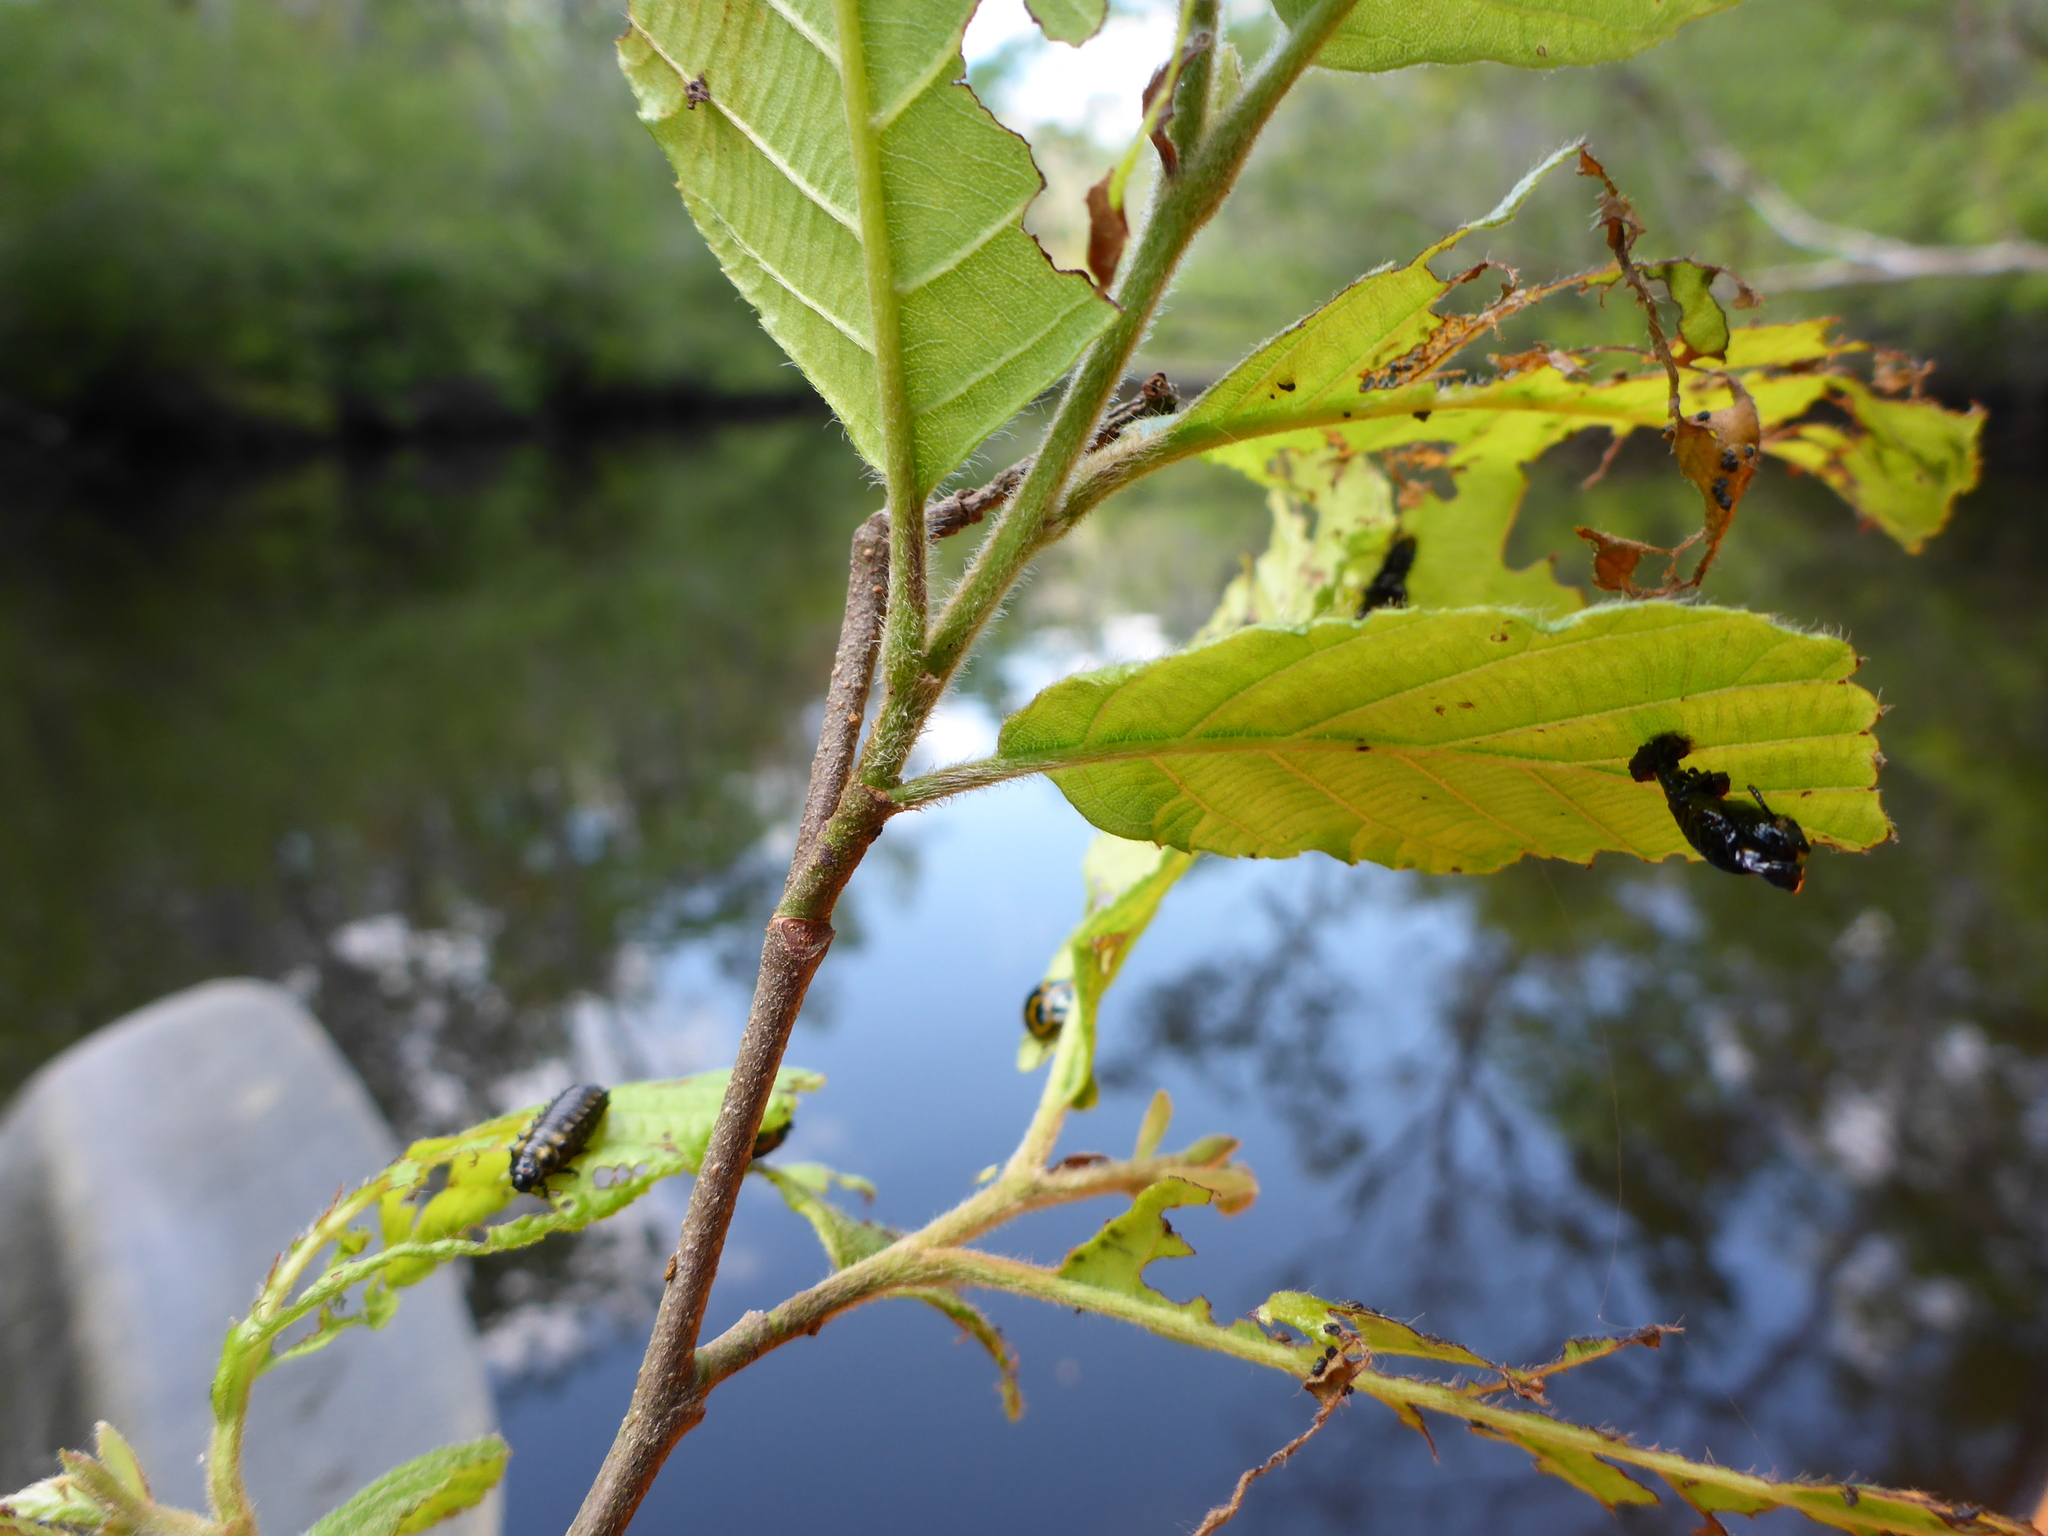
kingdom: Animalia
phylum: Arthropoda
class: Insecta
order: Coleoptera
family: Chrysomelidae
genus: Chrysomela
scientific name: Chrysomela interrupta
